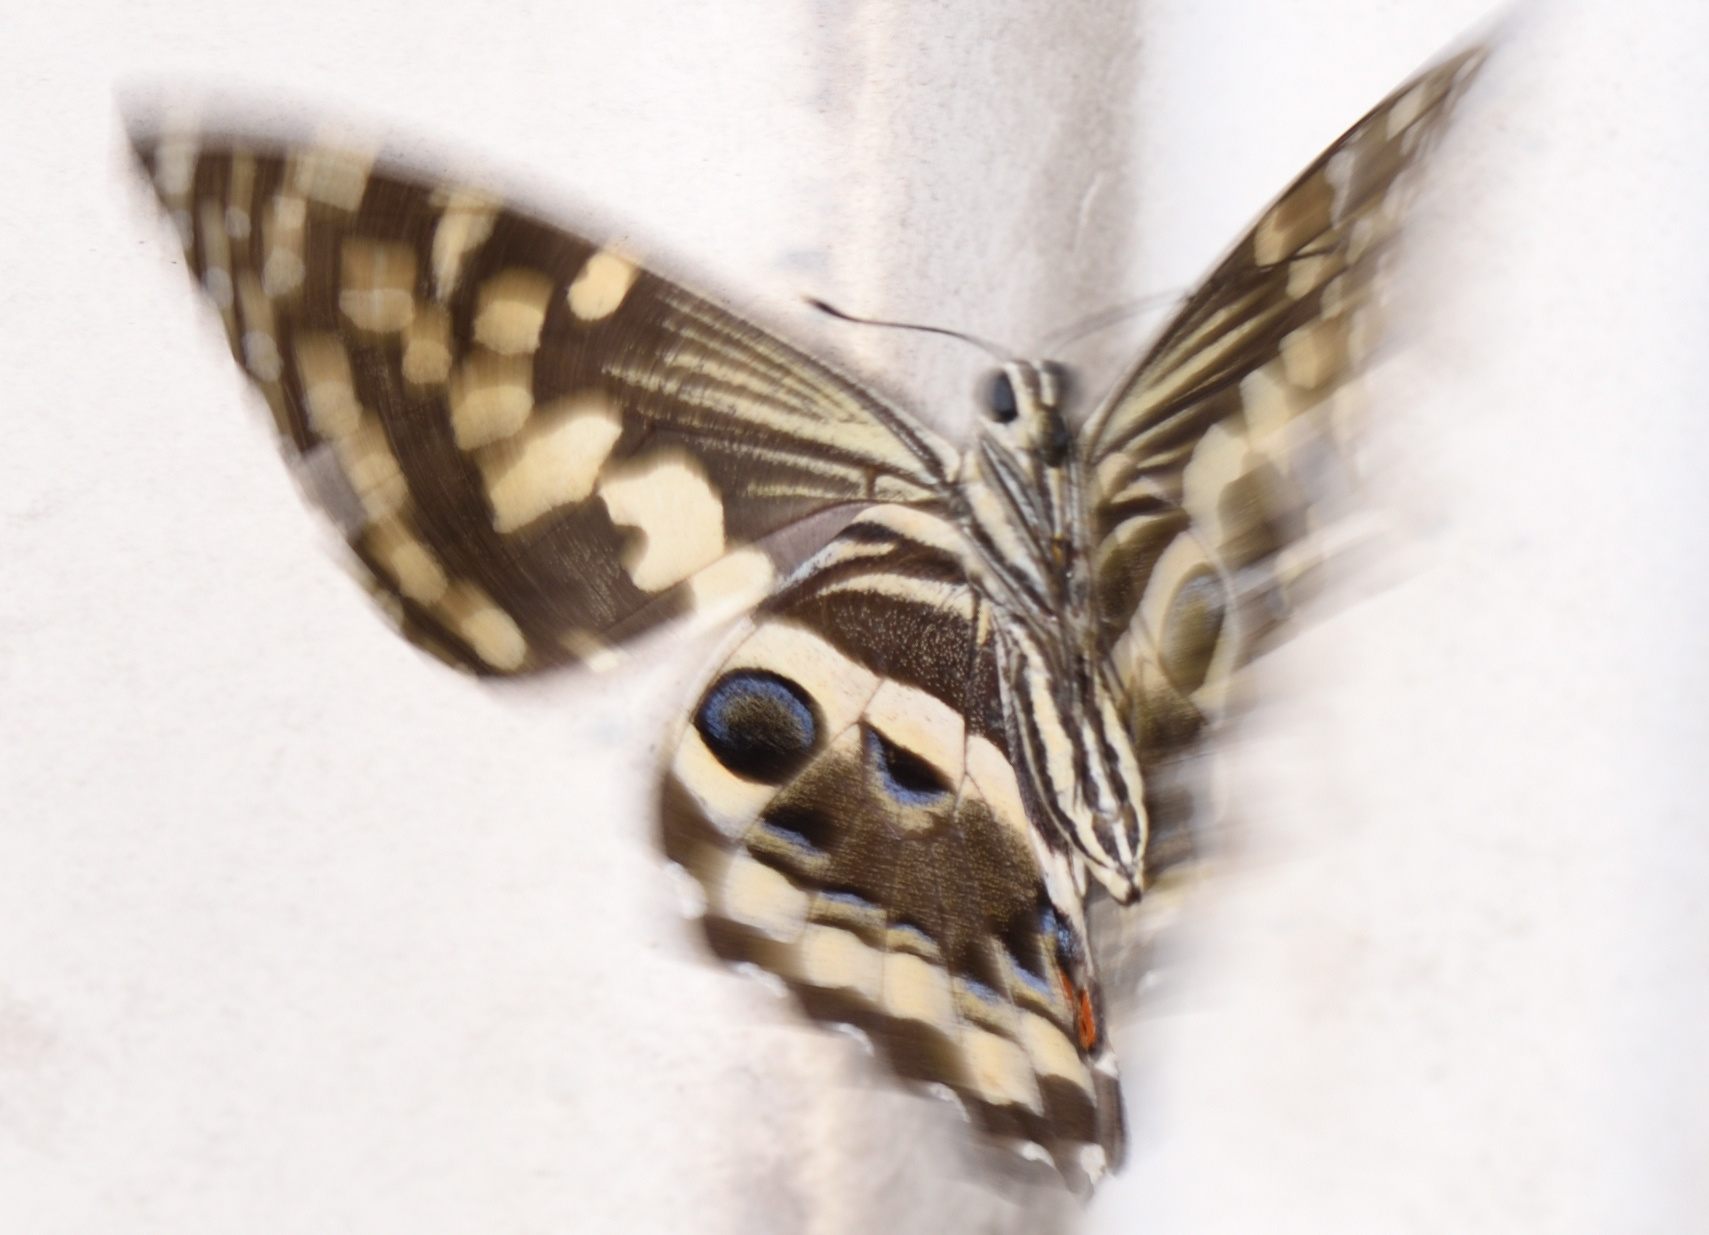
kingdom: Animalia
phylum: Arthropoda
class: Insecta
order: Lepidoptera
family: Papilionidae
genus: Papilio
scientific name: Papilio demodocus
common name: Christmas butterfly
